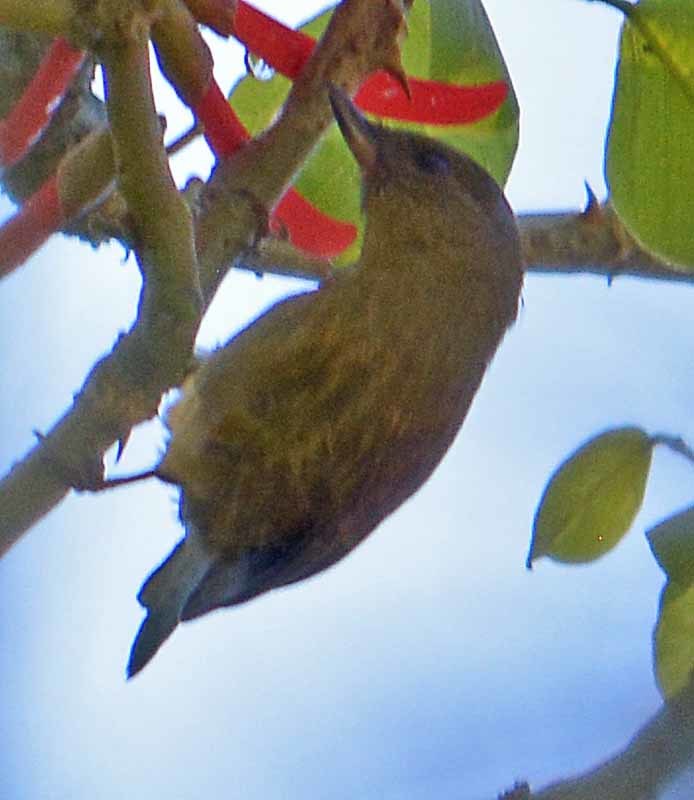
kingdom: Animalia
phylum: Chordata
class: Aves
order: Passeriformes
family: Thraupidae
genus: Diglossa
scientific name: Diglossa baritula
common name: Cinnamon-bellied flowerpiercer
